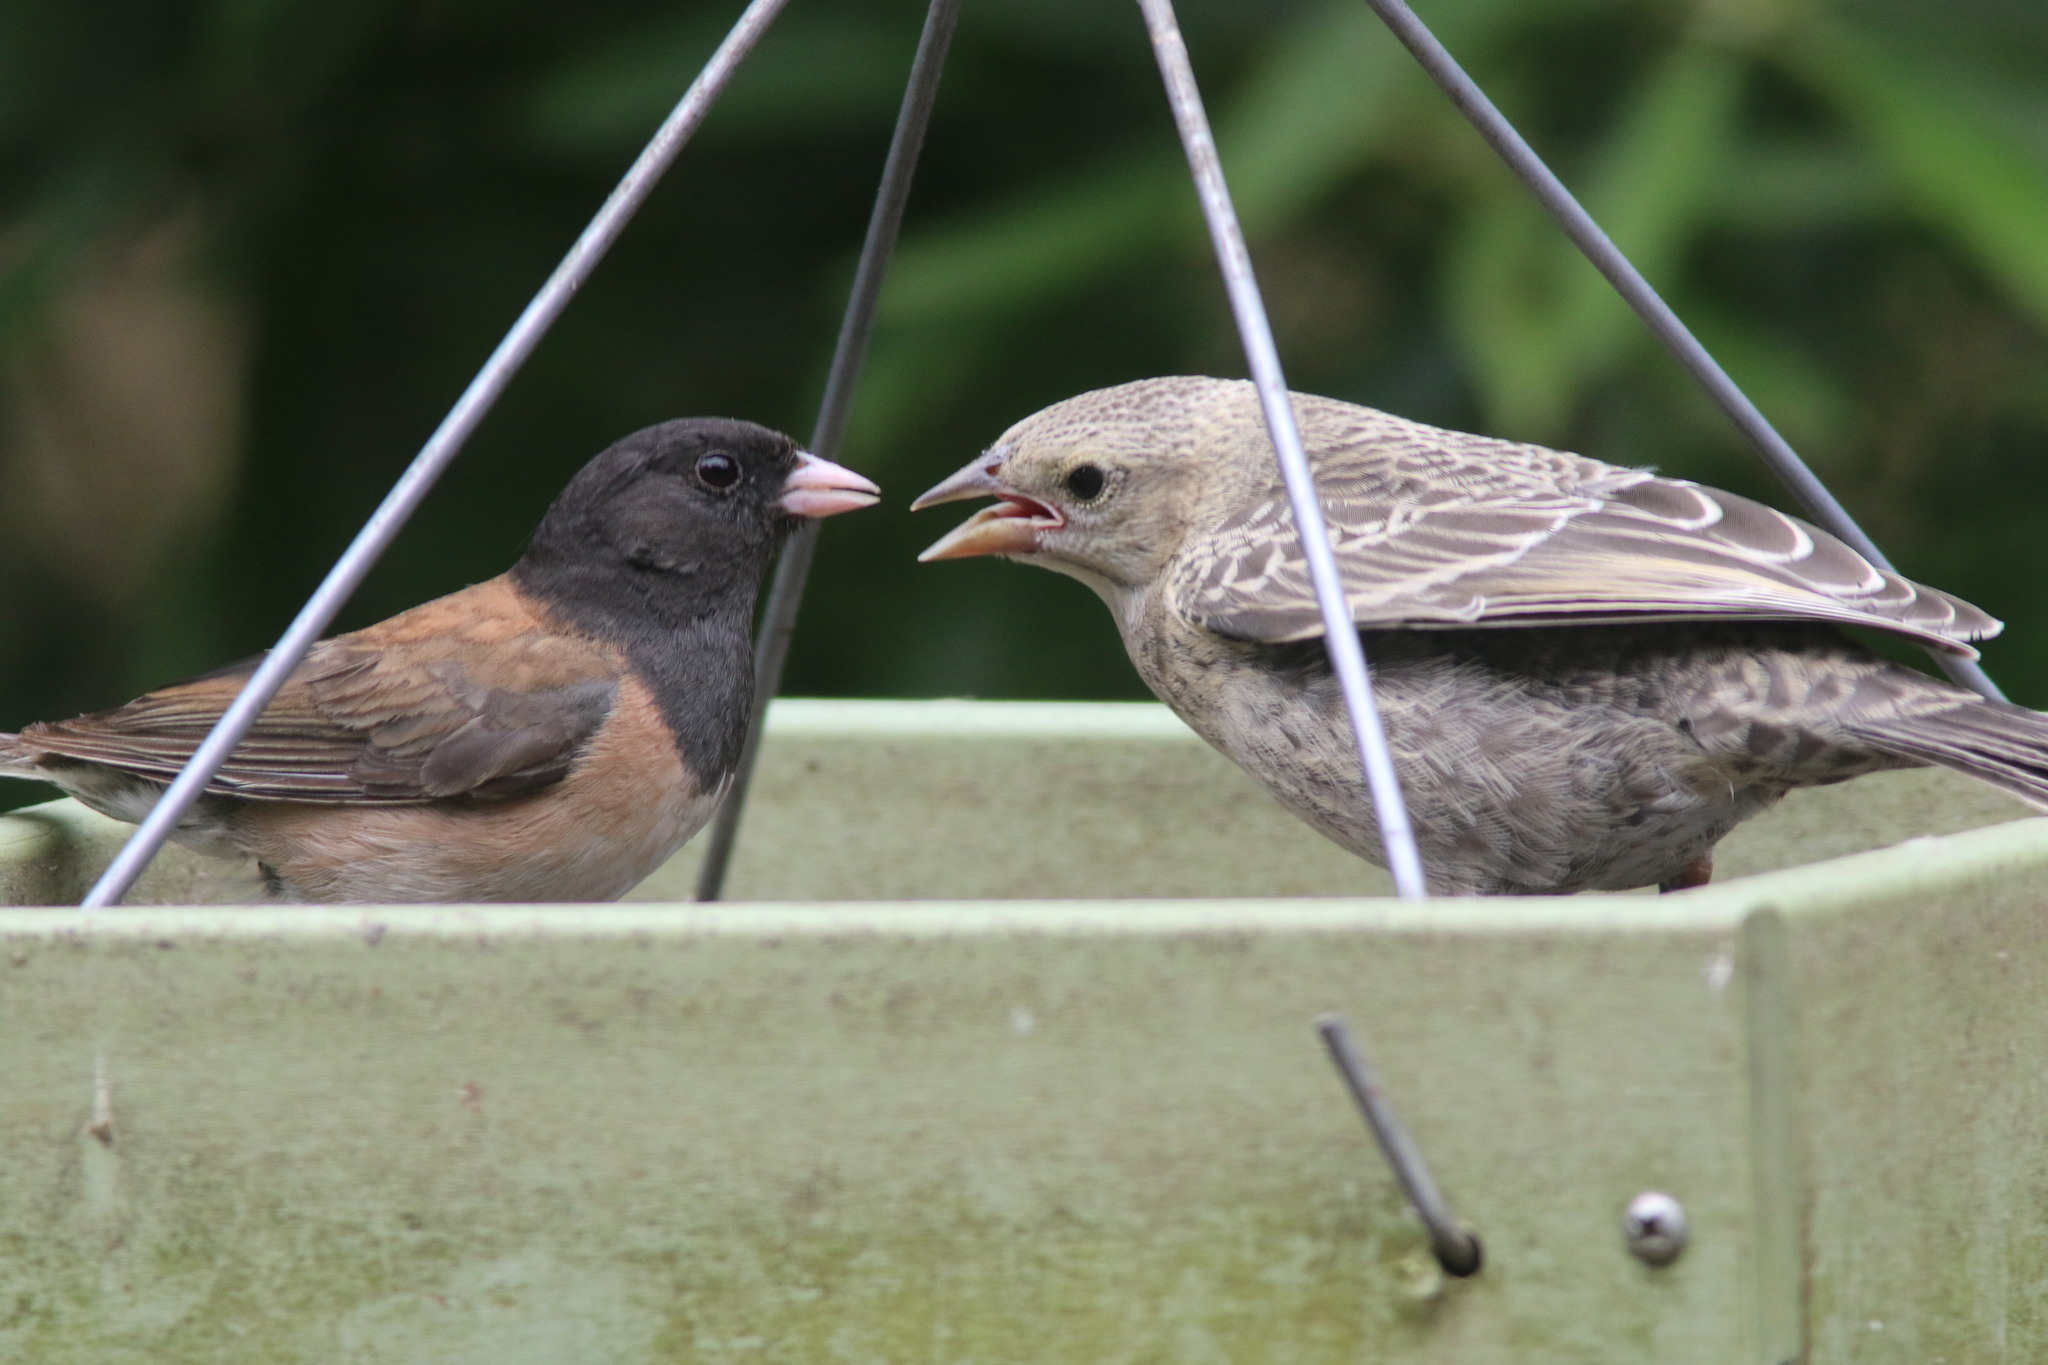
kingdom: Animalia
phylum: Chordata
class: Aves
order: Passeriformes
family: Passerellidae
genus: Junco
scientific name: Junco hyemalis
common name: Dark-eyed junco
